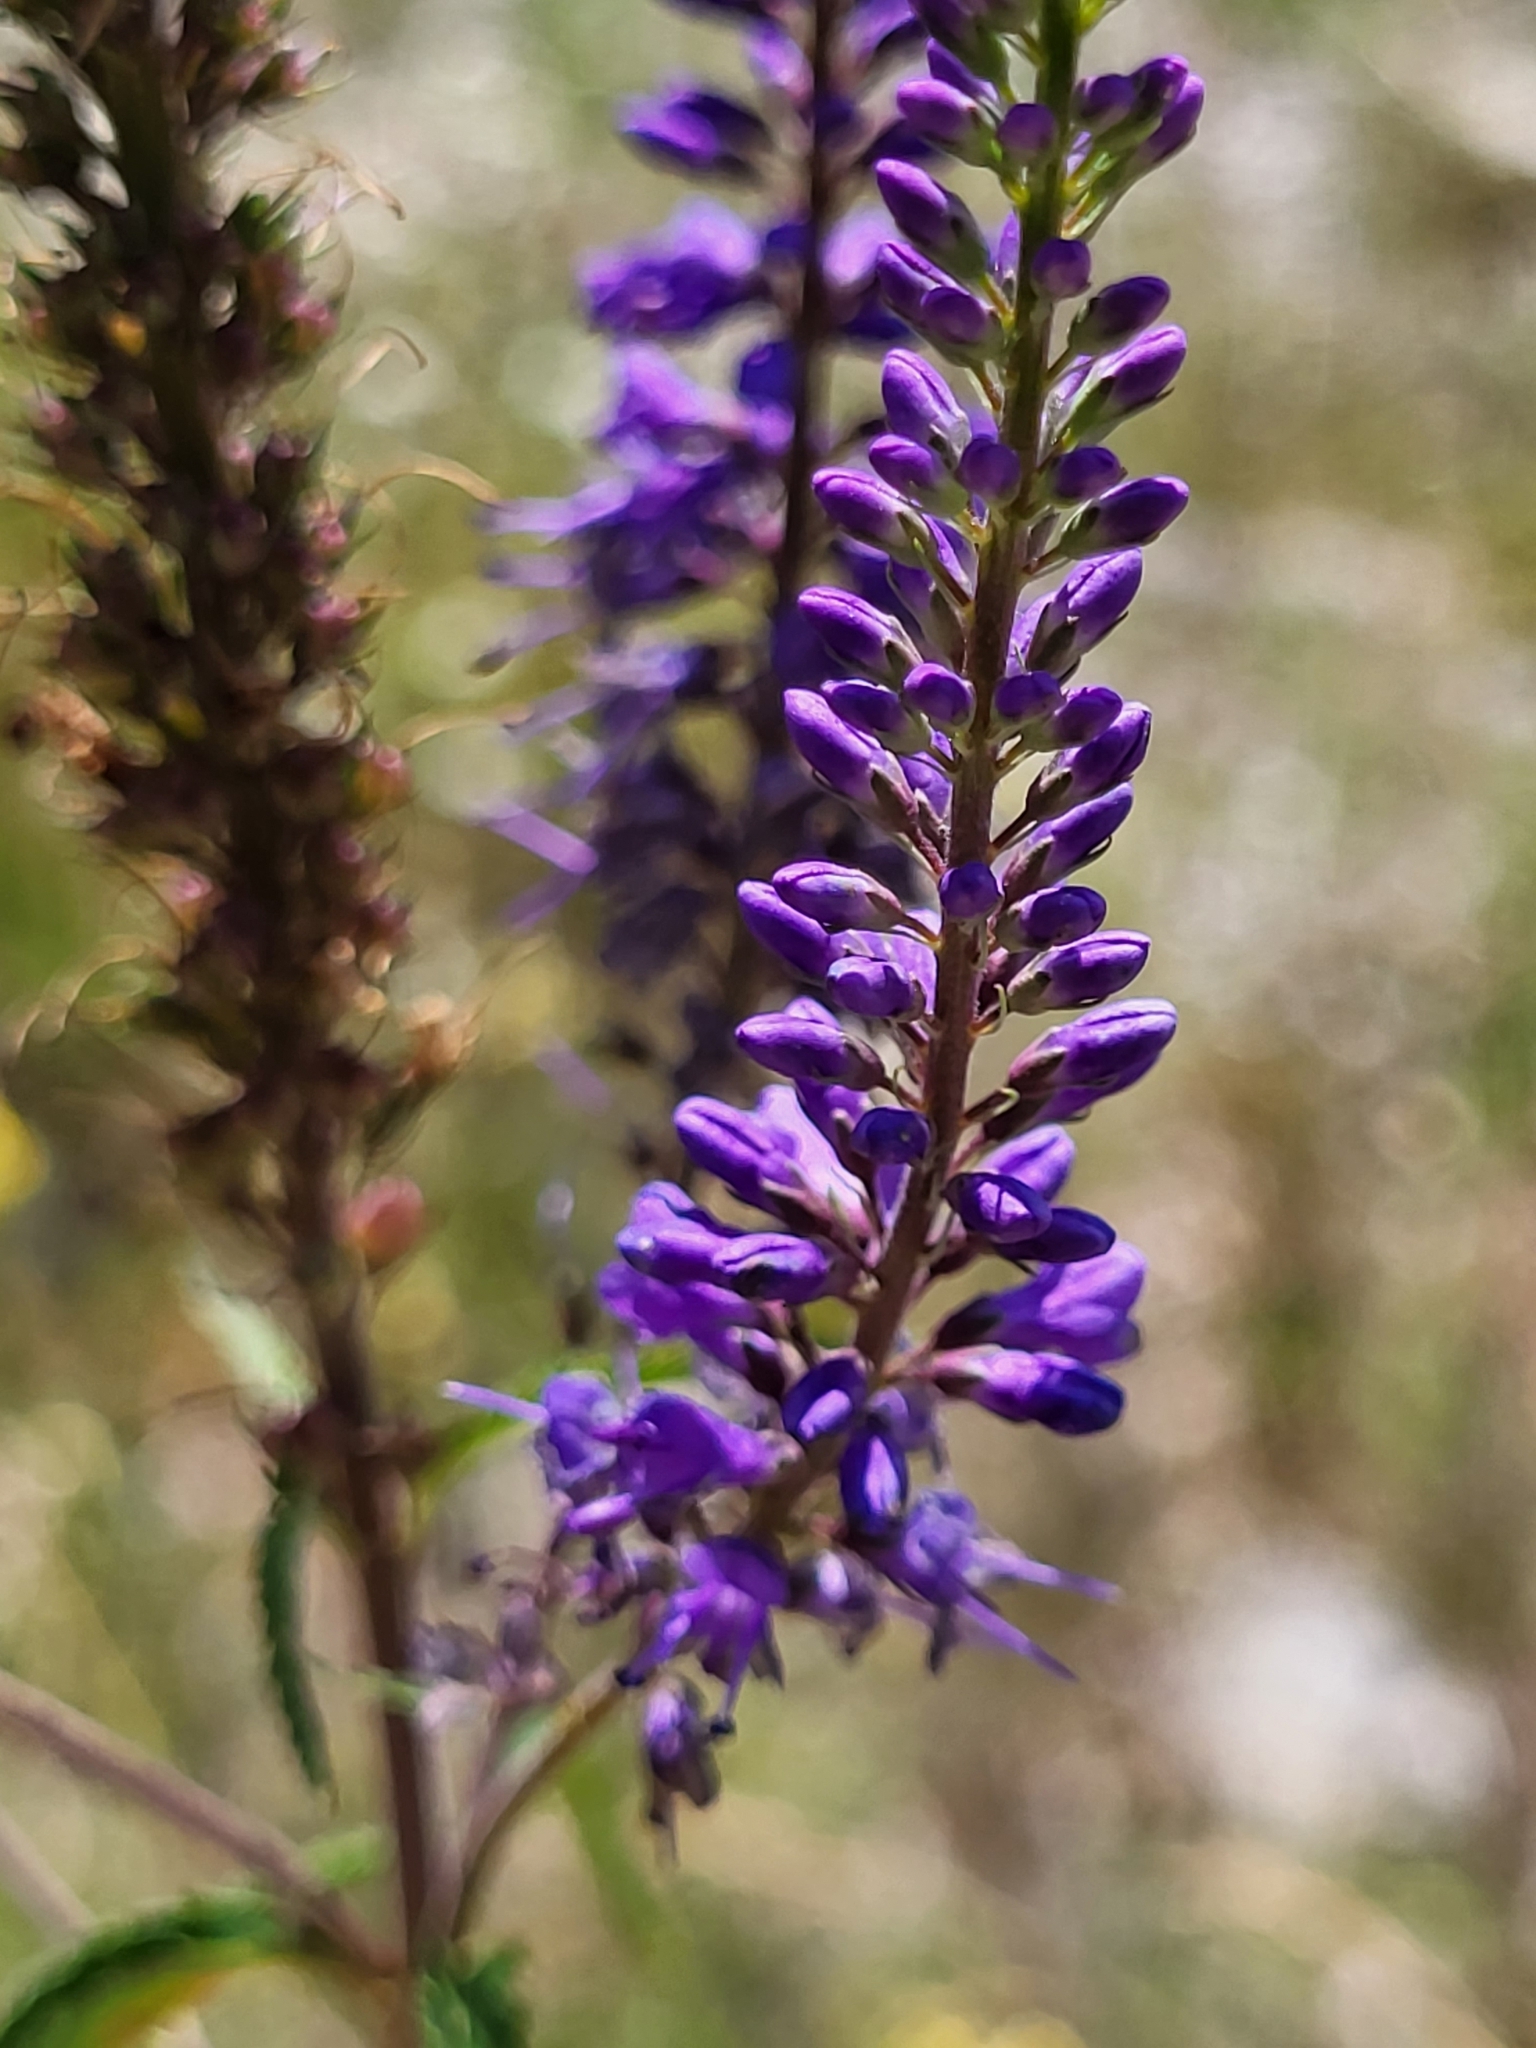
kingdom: Plantae
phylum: Tracheophyta
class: Magnoliopsida
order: Lamiales
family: Plantaginaceae
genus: Veronica
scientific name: Veronica longifolia
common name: Garden speedwell
